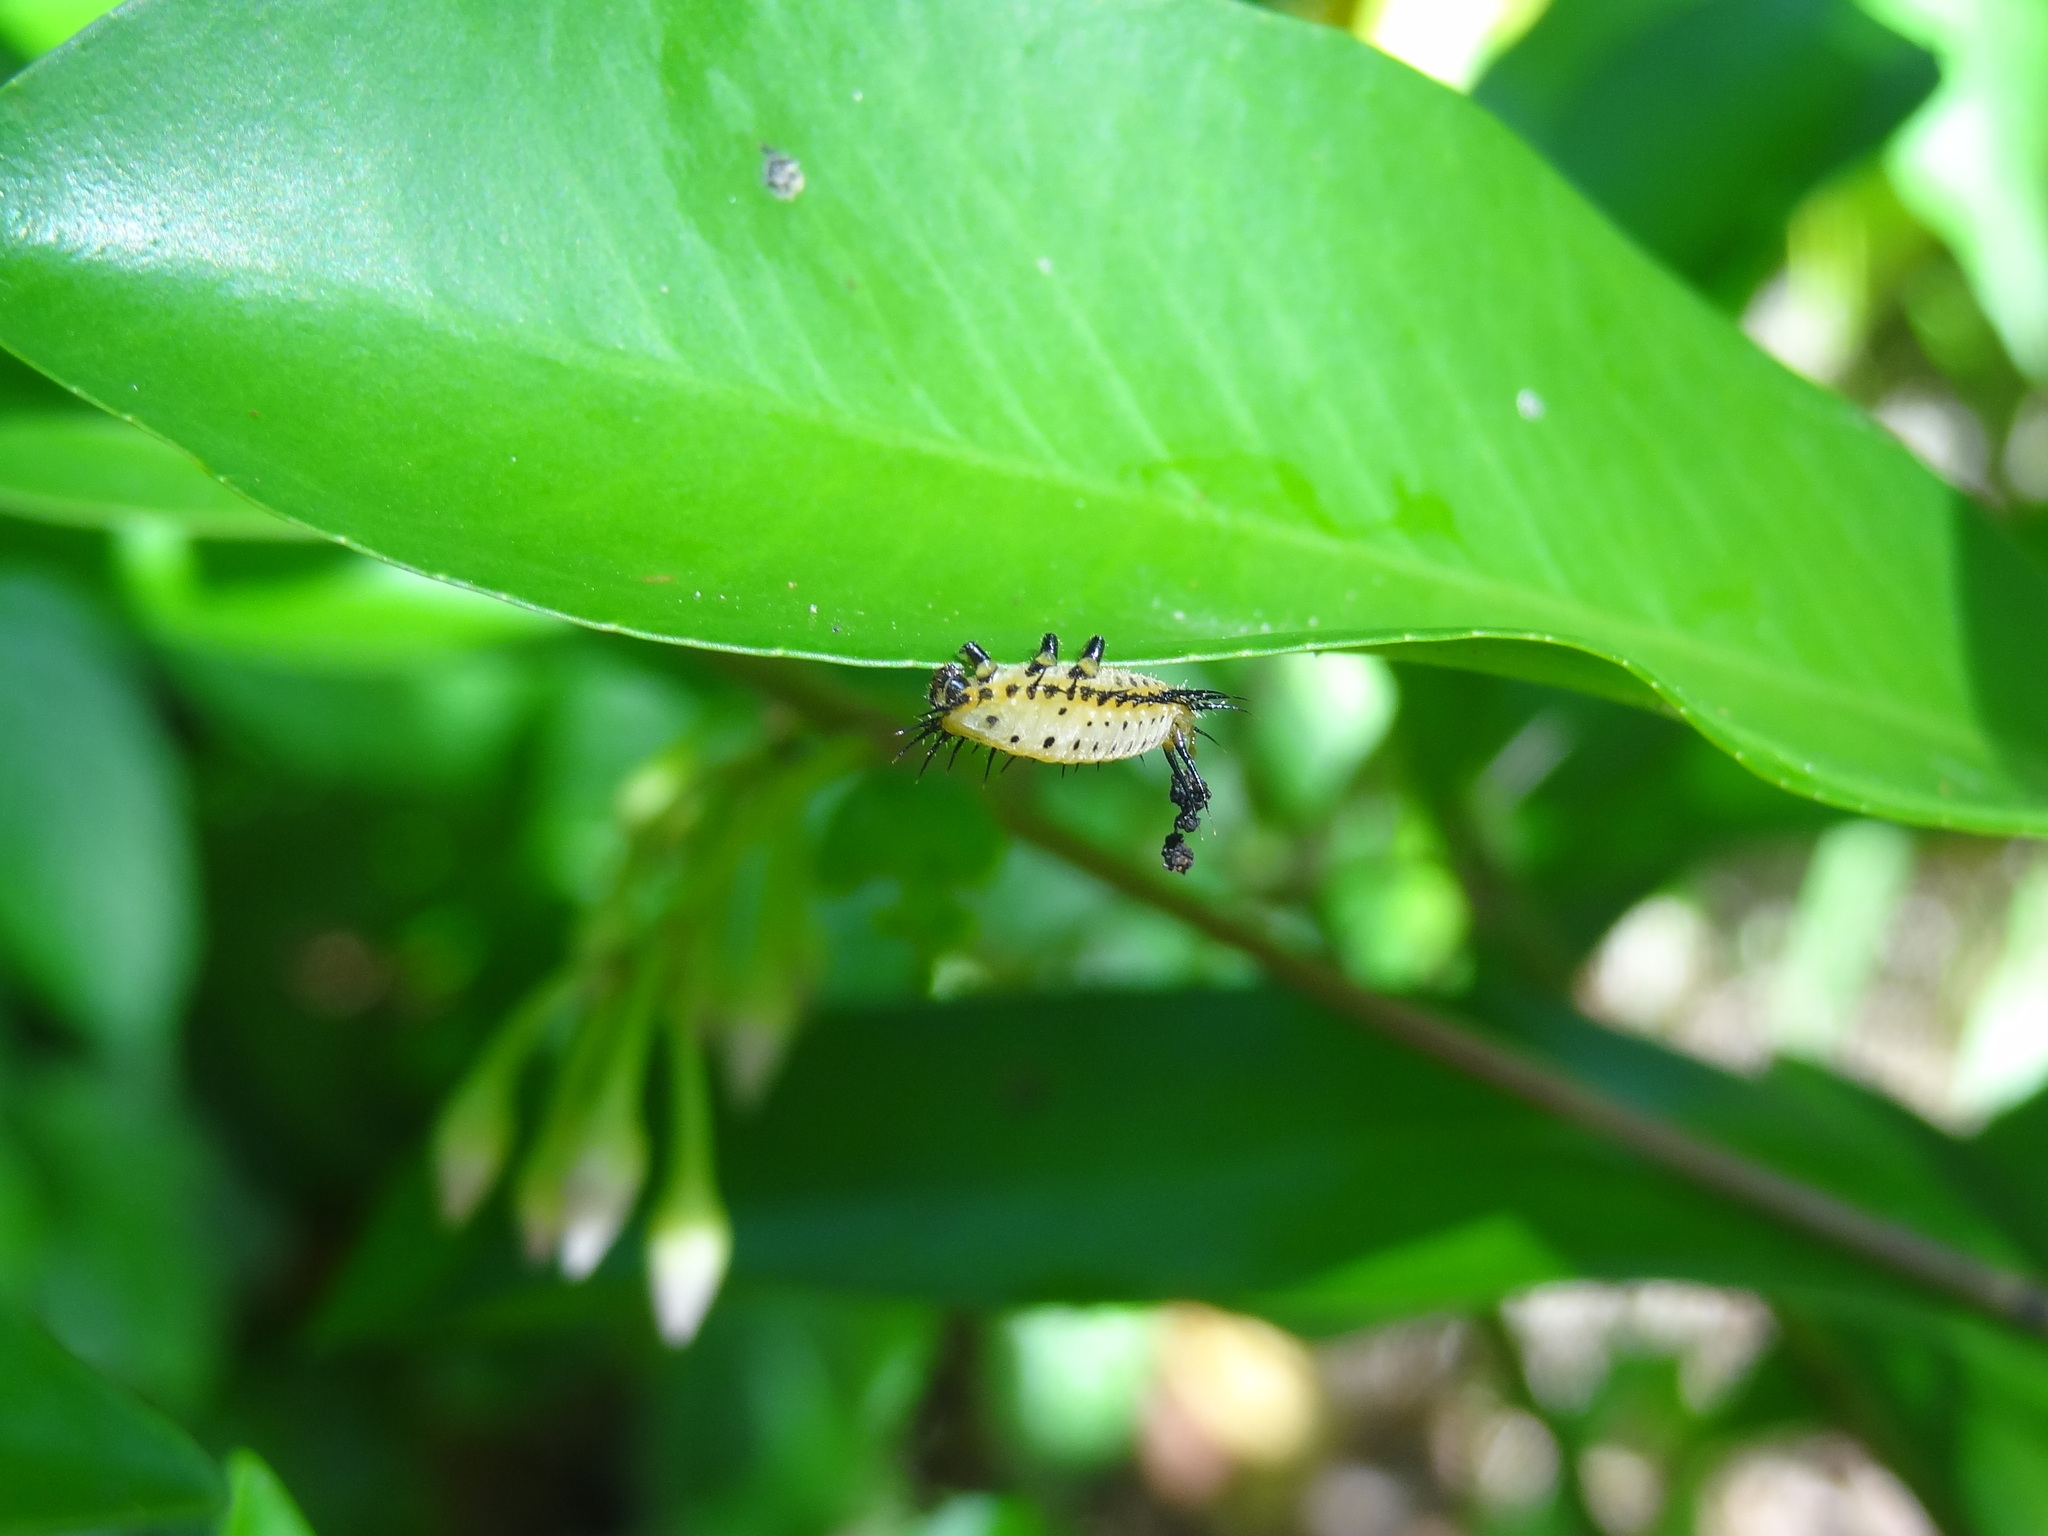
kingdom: Animalia
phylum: Arthropoda
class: Insecta
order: Coleoptera
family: Chrysomelidae
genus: Aspidimorpha
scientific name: Aspidimorpha miliaris
